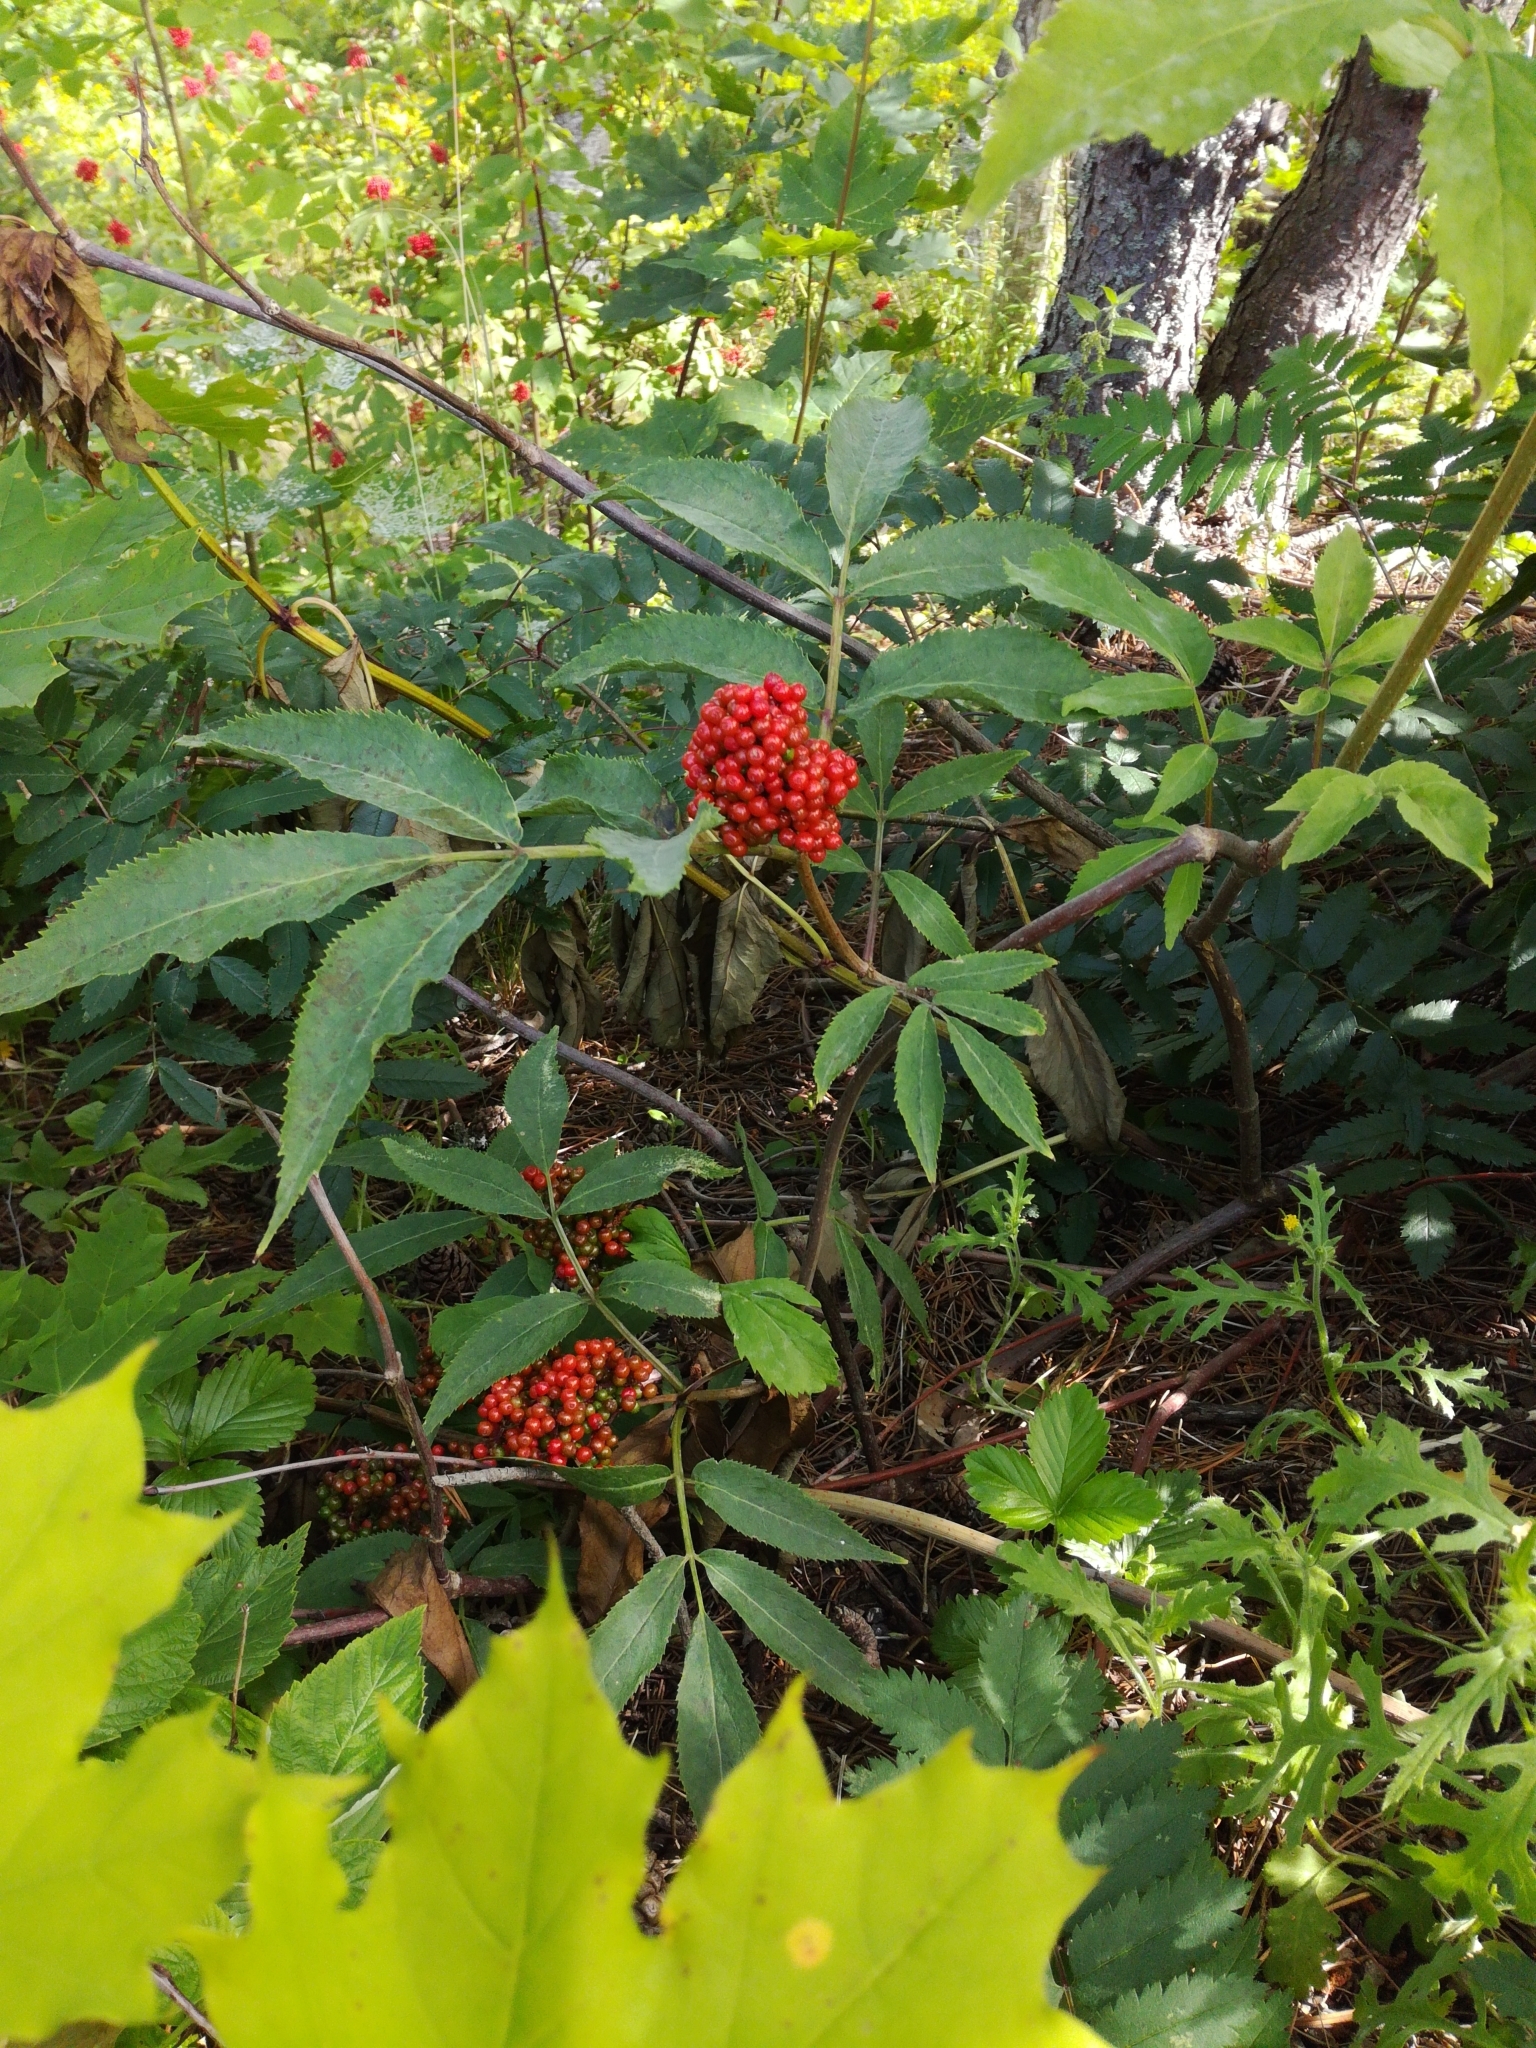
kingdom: Plantae
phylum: Tracheophyta
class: Magnoliopsida
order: Dipsacales
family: Viburnaceae
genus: Sambucus
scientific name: Sambucus racemosa
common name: Red-berried elder
